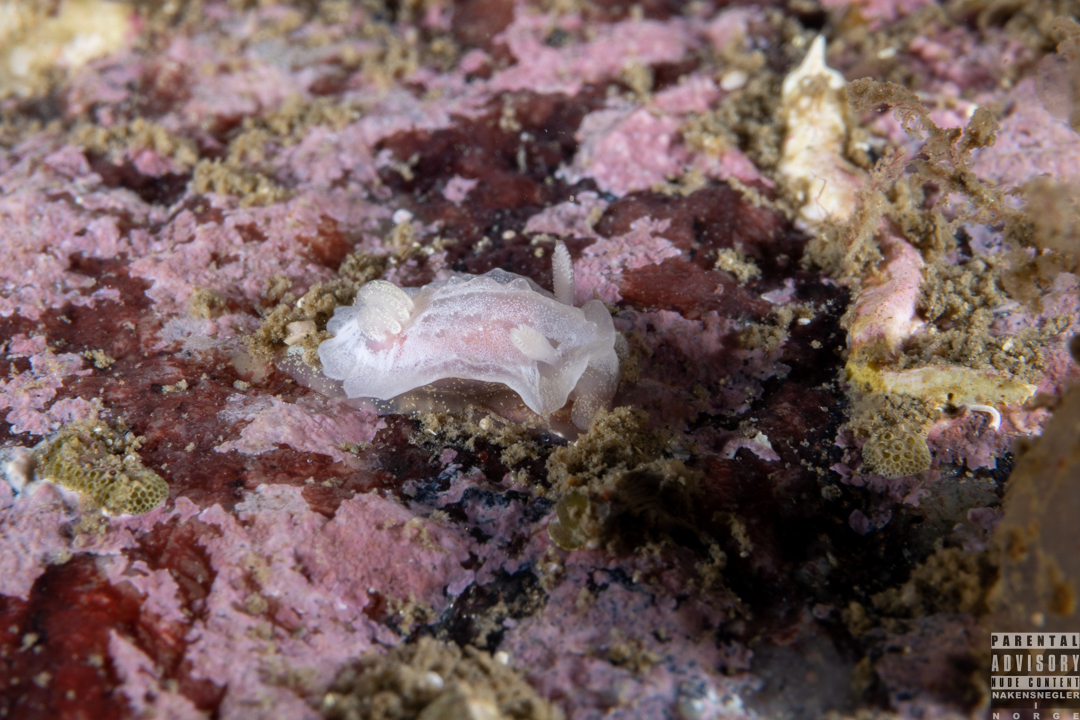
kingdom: Animalia
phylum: Mollusca
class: Gastropoda
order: Nudibranchia
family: Goniodorididae
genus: Okenia
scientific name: Okenia
